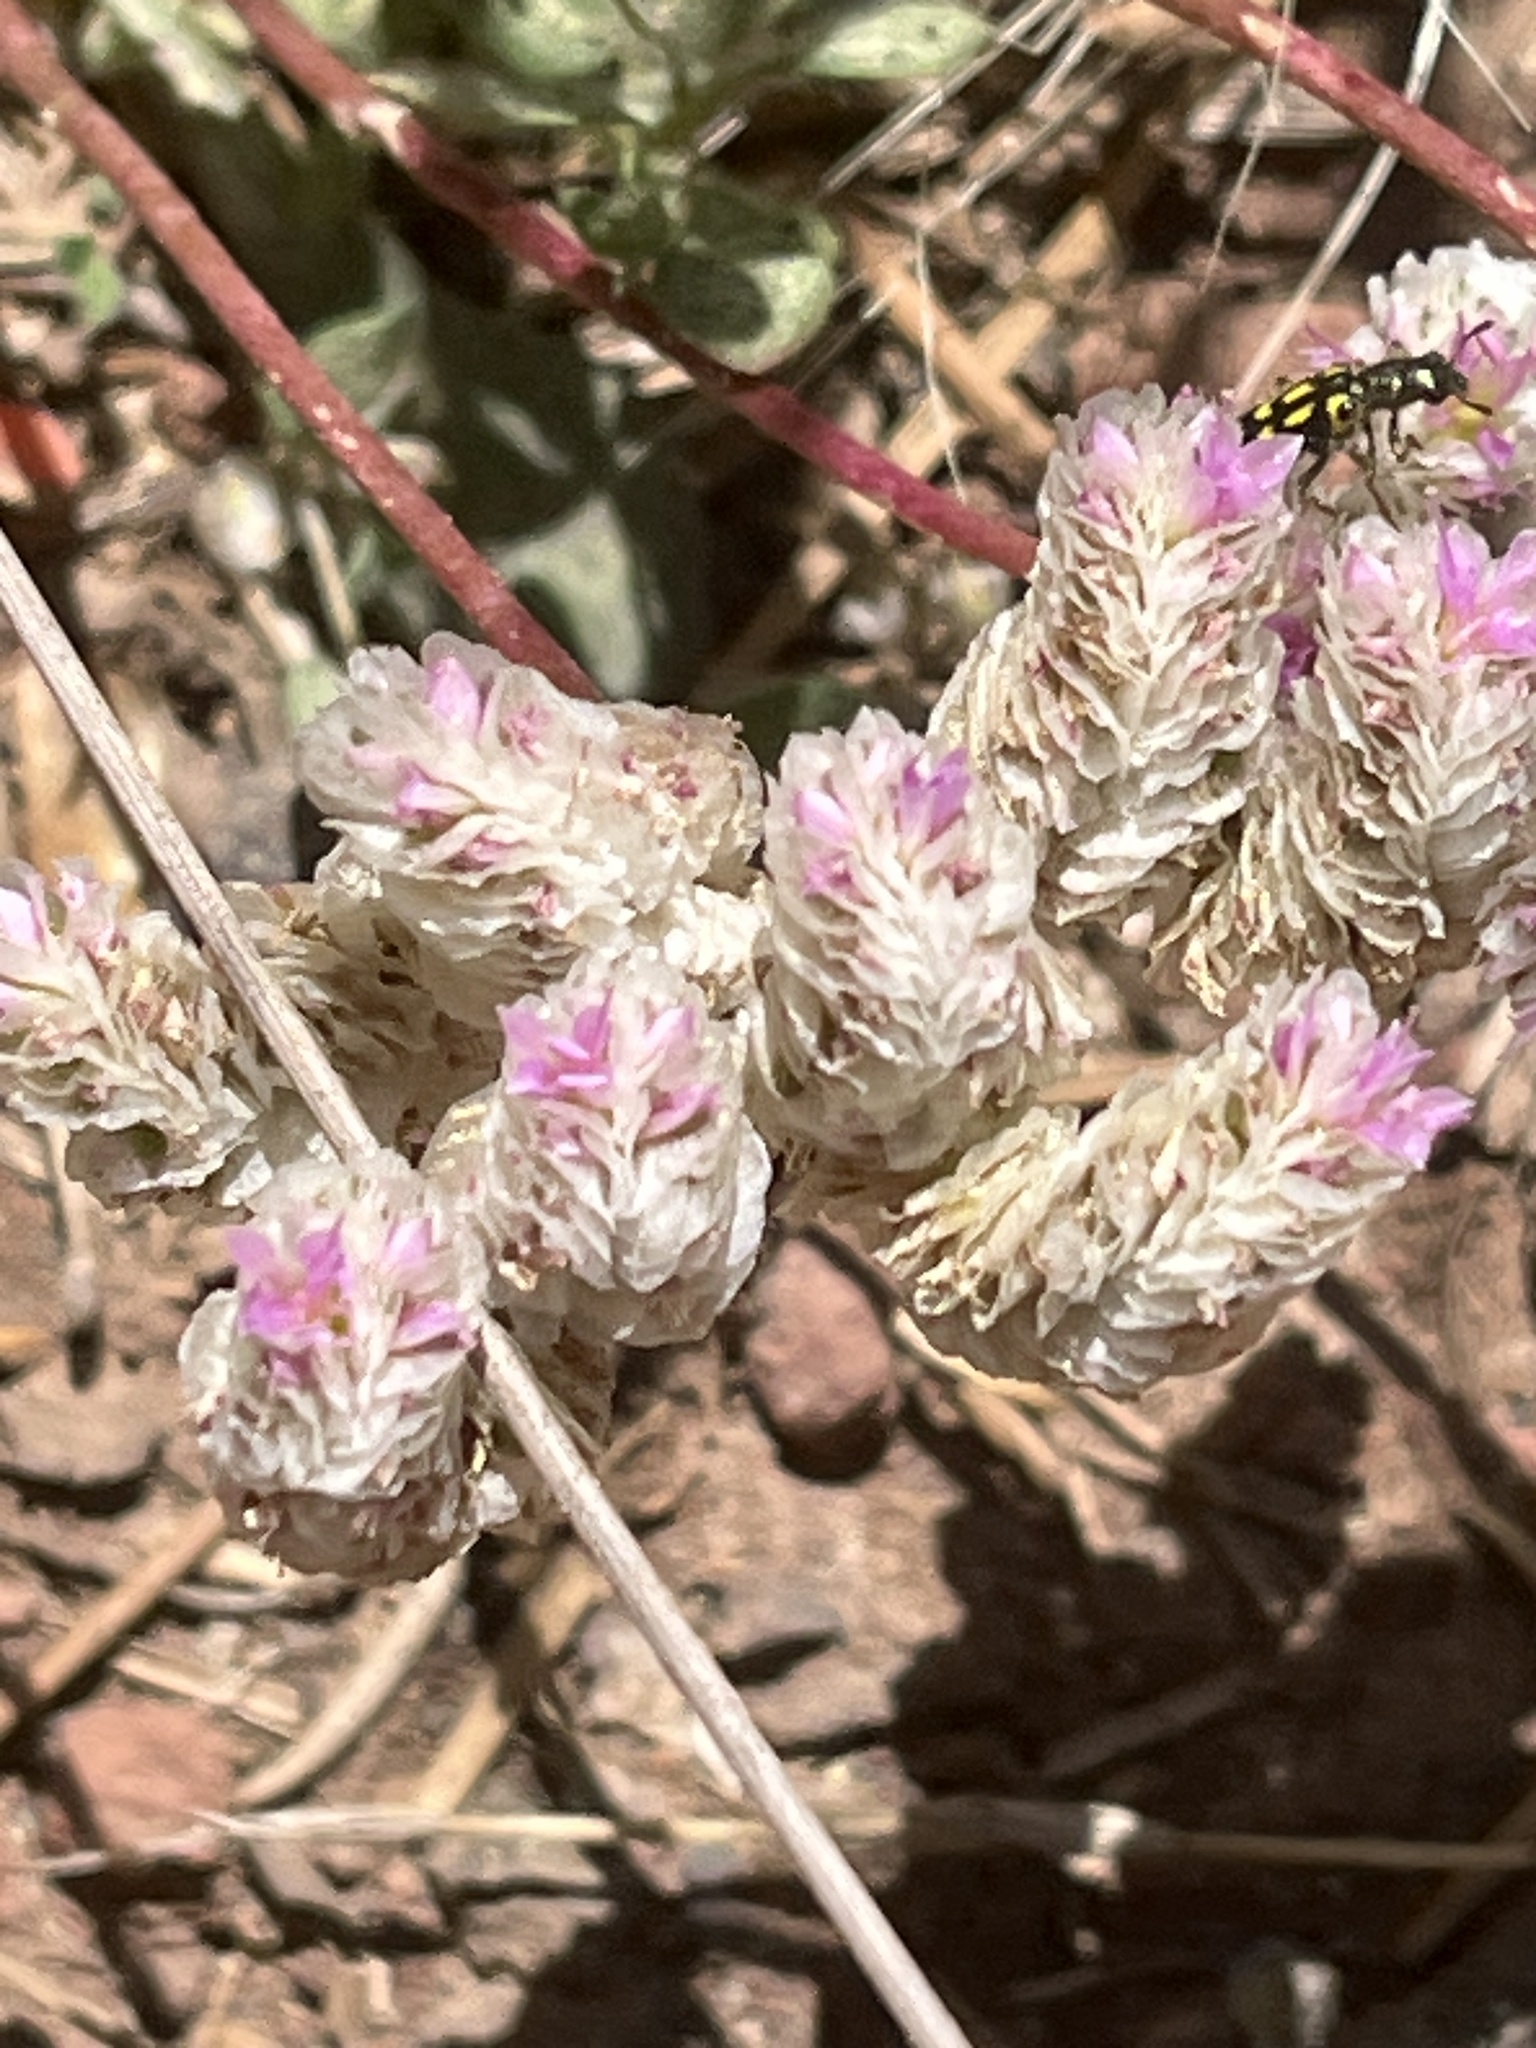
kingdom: Plantae
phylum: Tracheophyta
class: Magnoliopsida
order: Caryophyllales
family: Montiaceae
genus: Calyptridium
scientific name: Calyptridium monospermum
